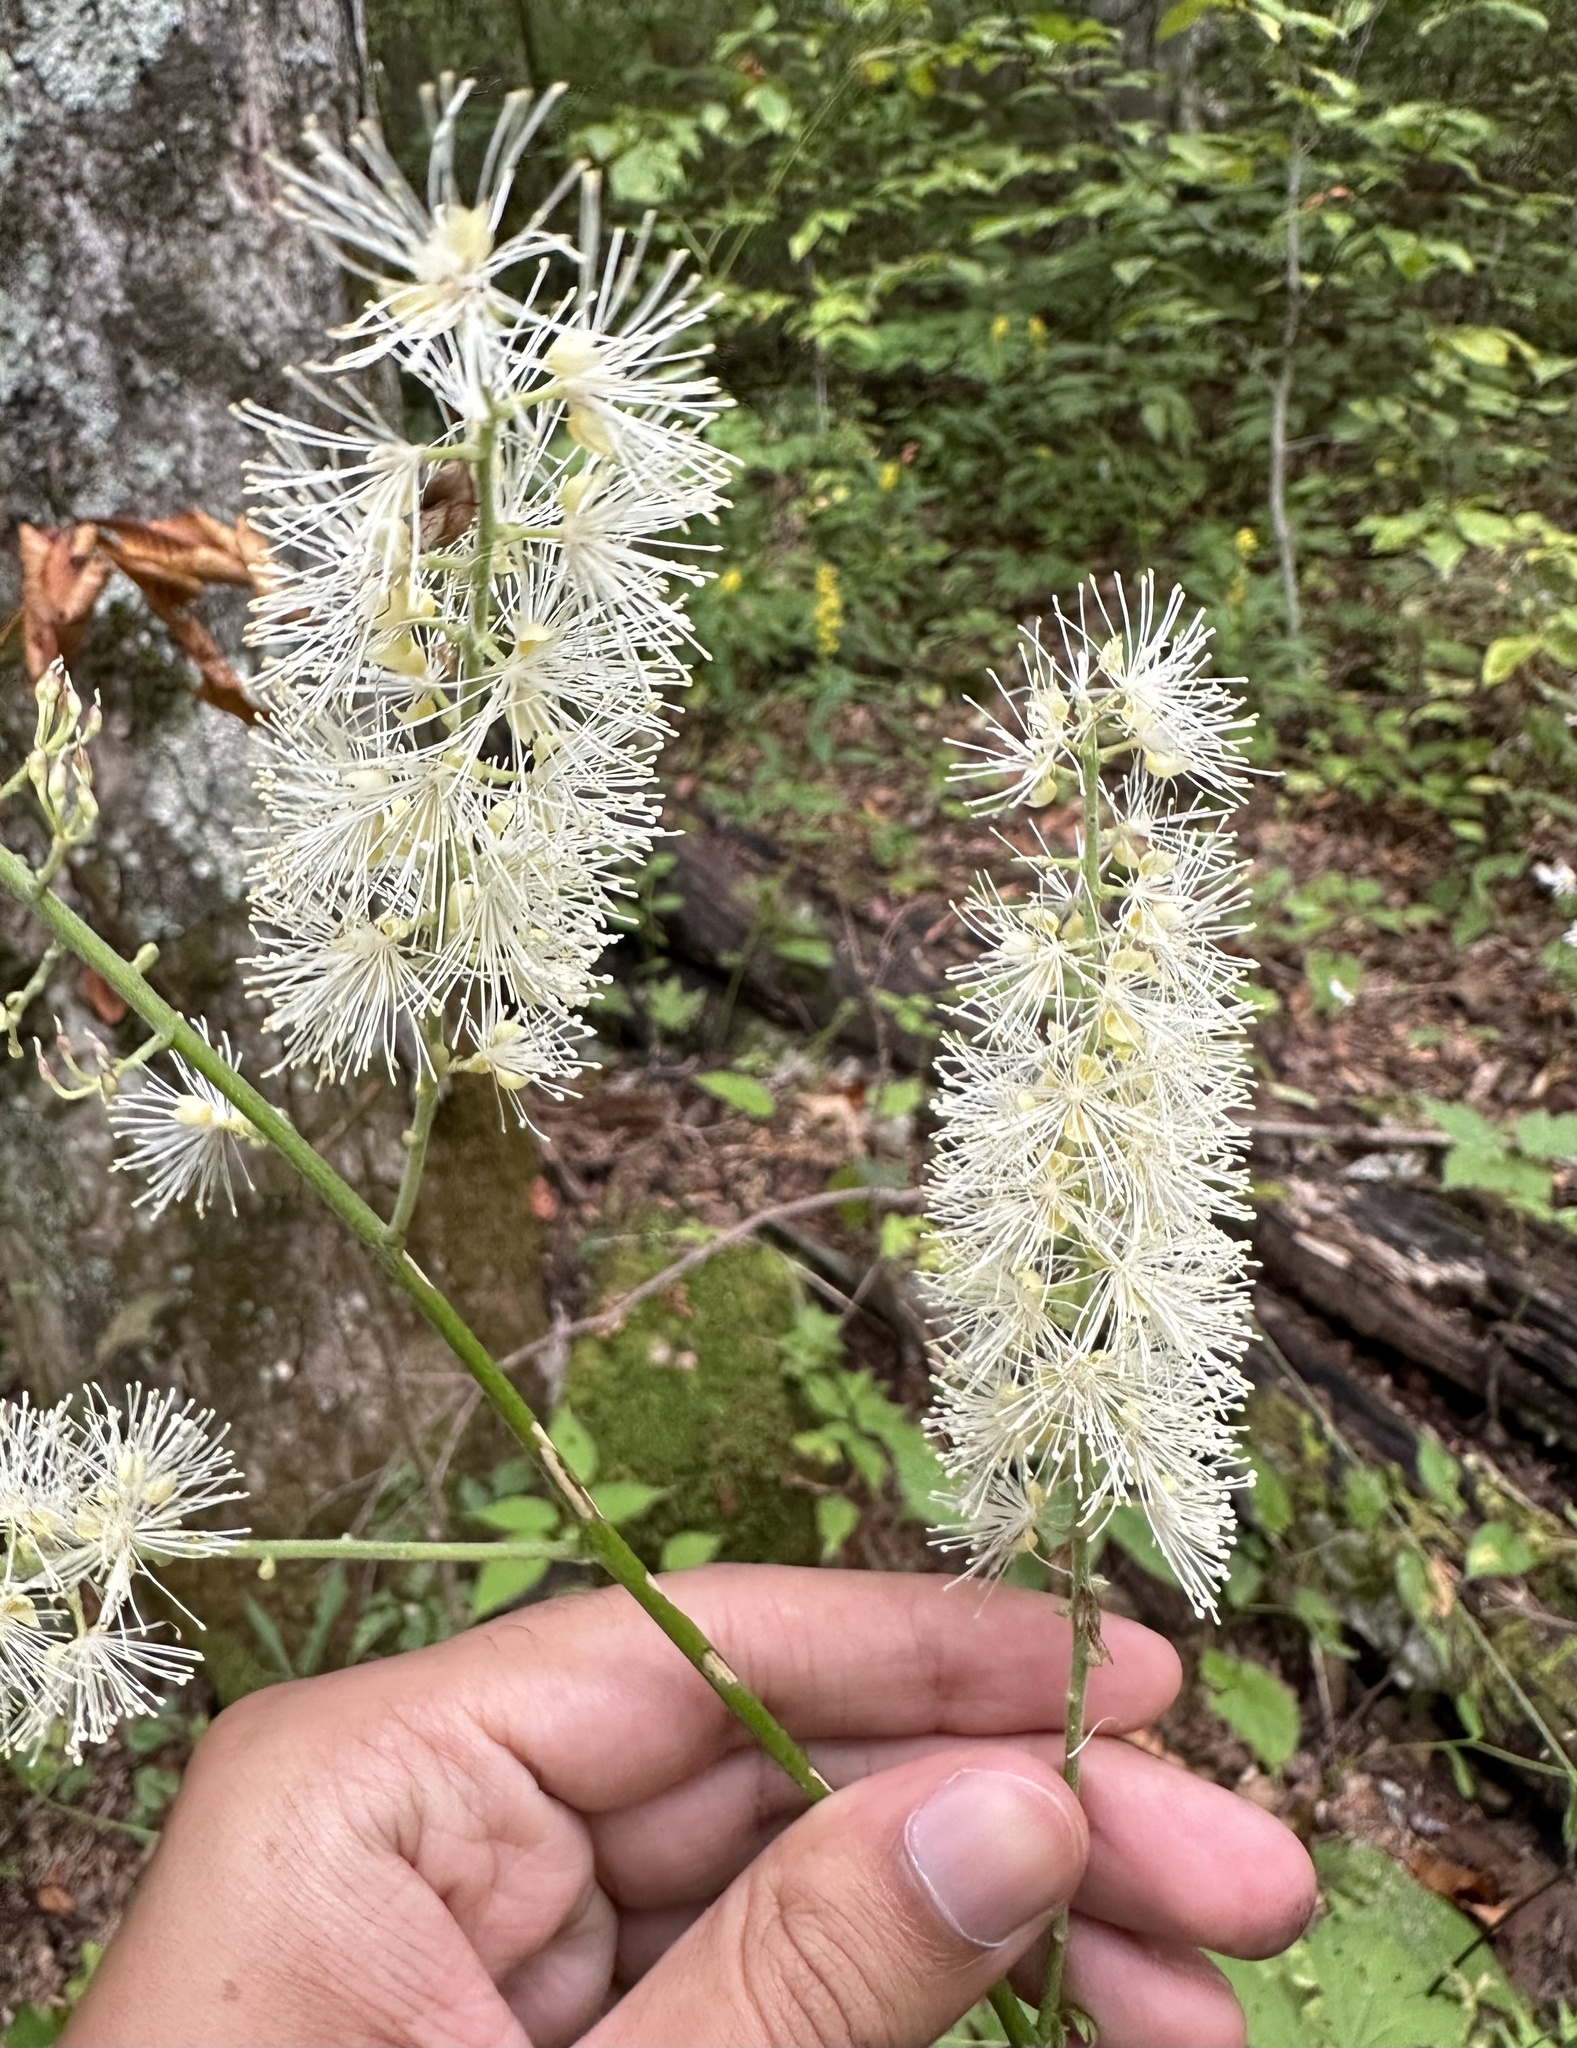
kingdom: Plantae
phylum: Tracheophyta
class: Magnoliopsida
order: Ranunculales
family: Ranunculaceae
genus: Actaea
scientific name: Actaea podocarpa
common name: American bugbane
